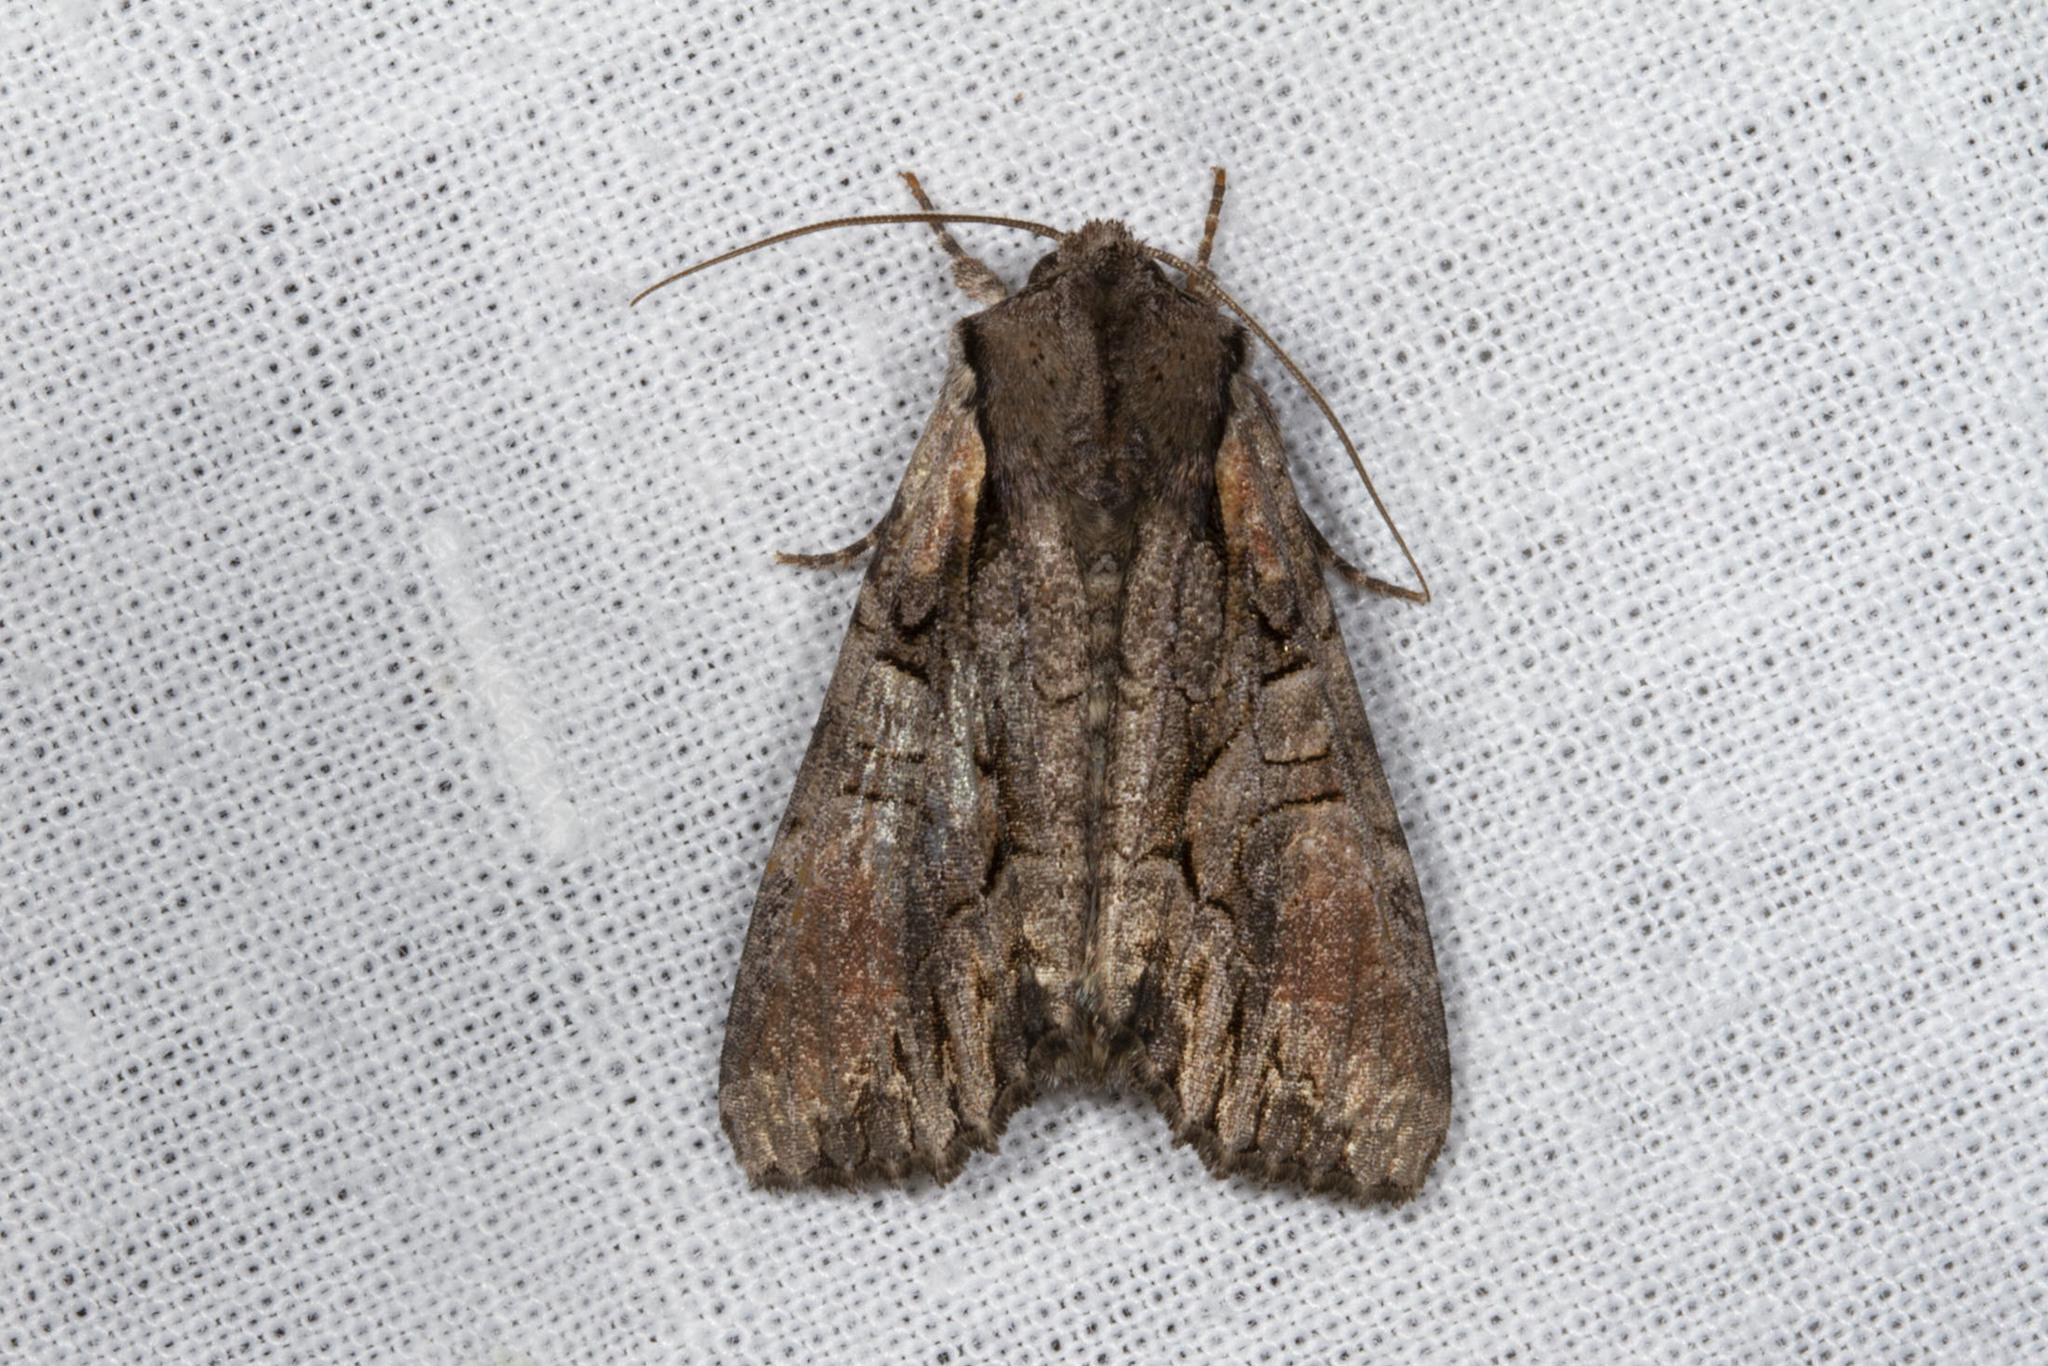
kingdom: Animalia
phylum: Arthropoda
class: Insecta
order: Lepidoptera
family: Noctuidae
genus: Lacanobia
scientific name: Lacanobia subjuncta
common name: Speckled cutworm moth
